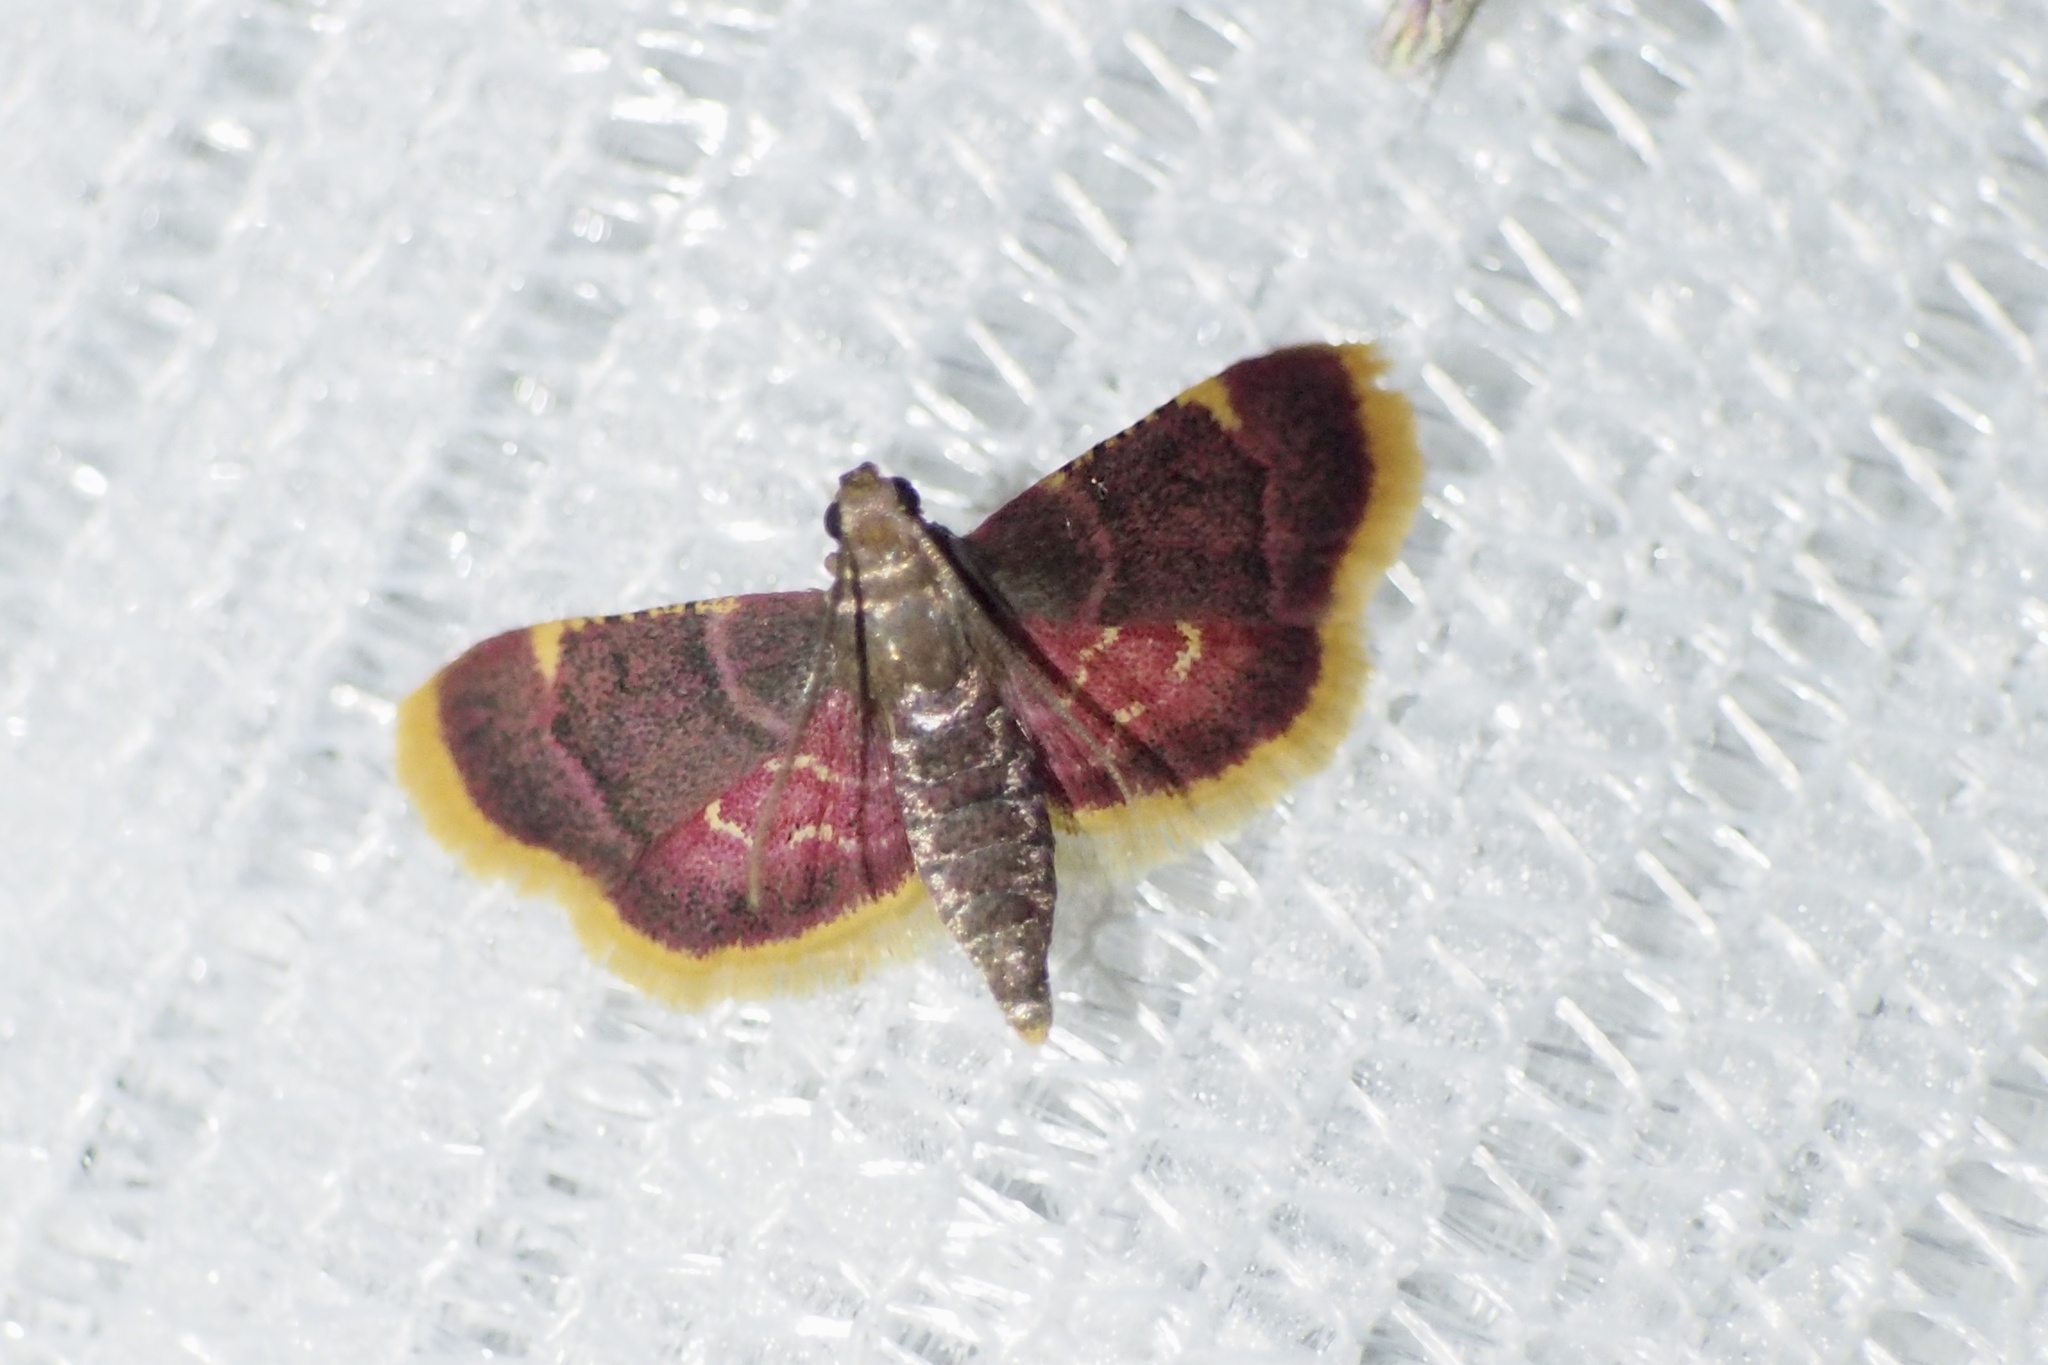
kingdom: Animalia
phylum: Arthropoda
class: Insecta
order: Lepidoptera
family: Pyralidae
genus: Hypsopygia
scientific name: Hypsopygia regina
